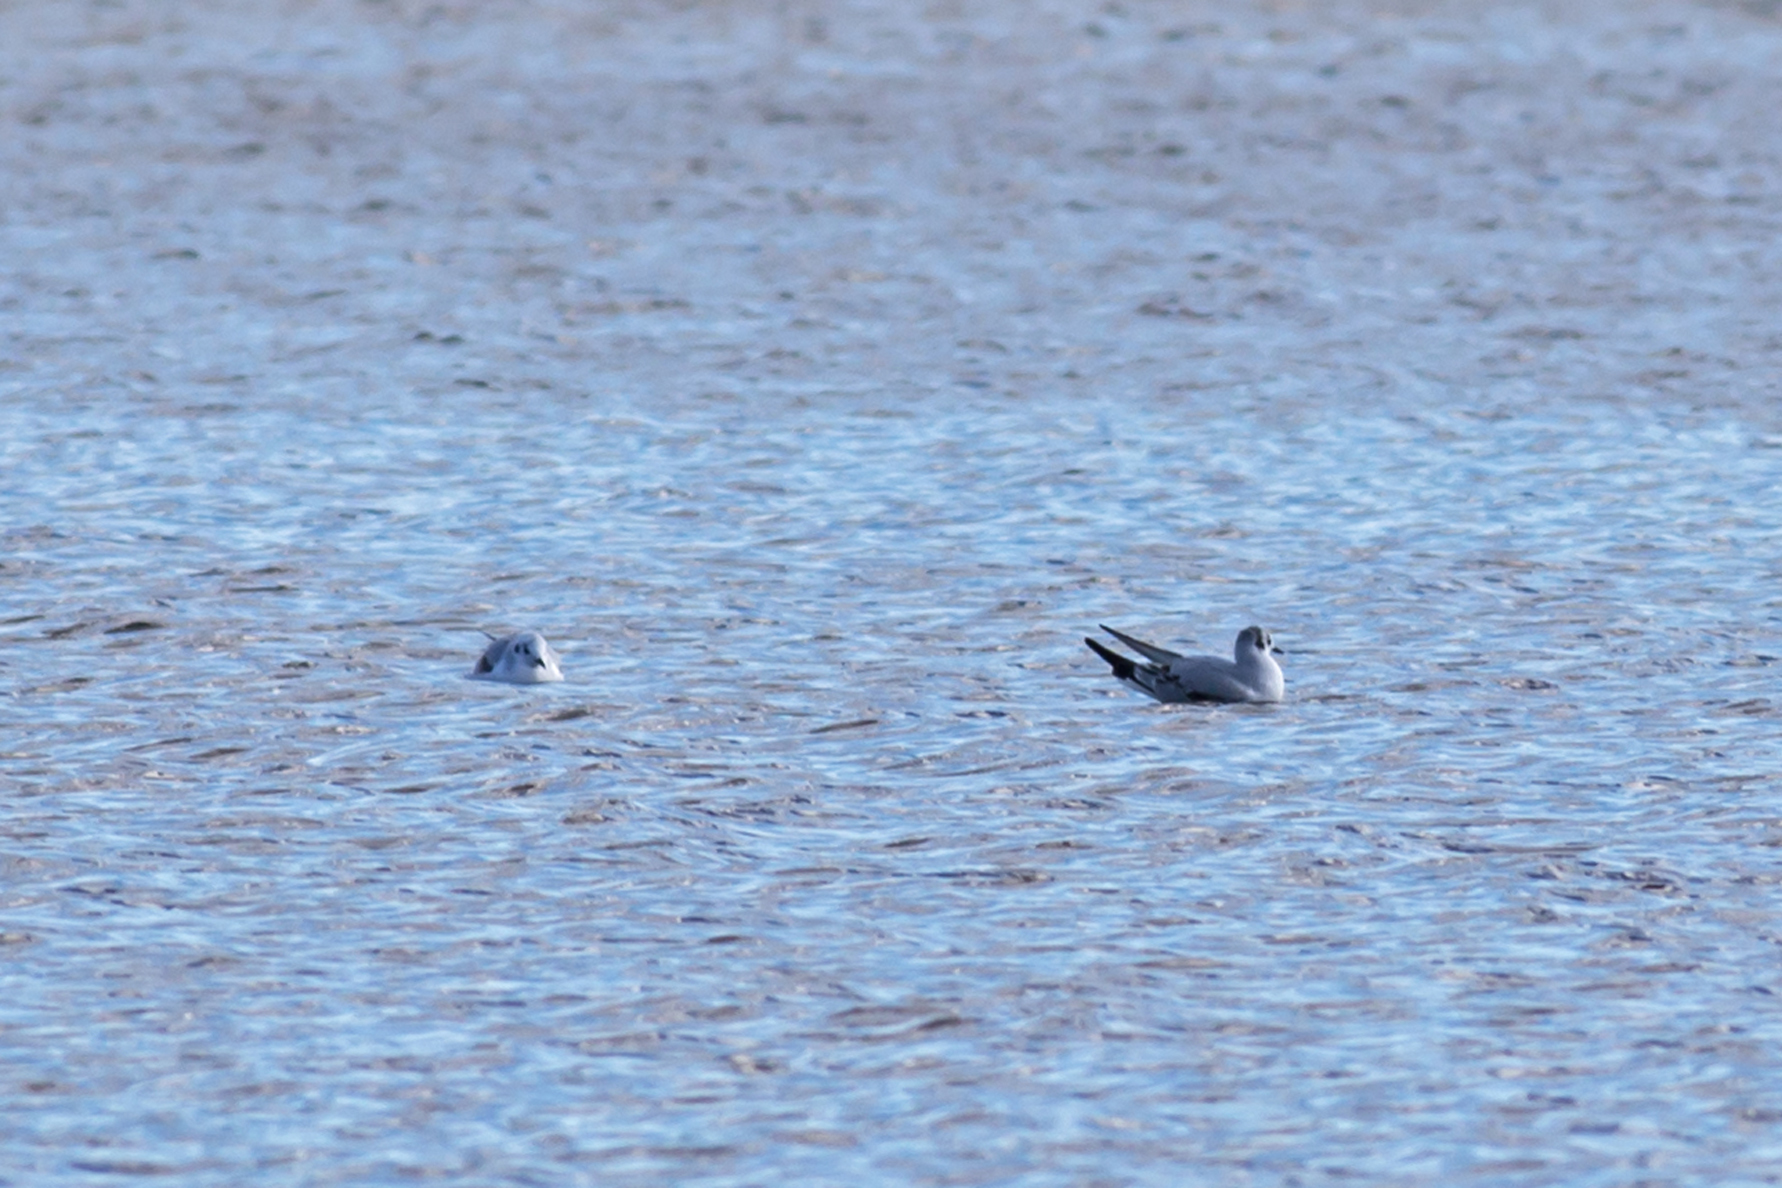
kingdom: Animalia
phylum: Chordata
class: Aves
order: Charadriiformes
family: Laridae
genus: Chroicocephalus
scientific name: Chroicocephalus philadelphia
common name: Bonaparte's gull
